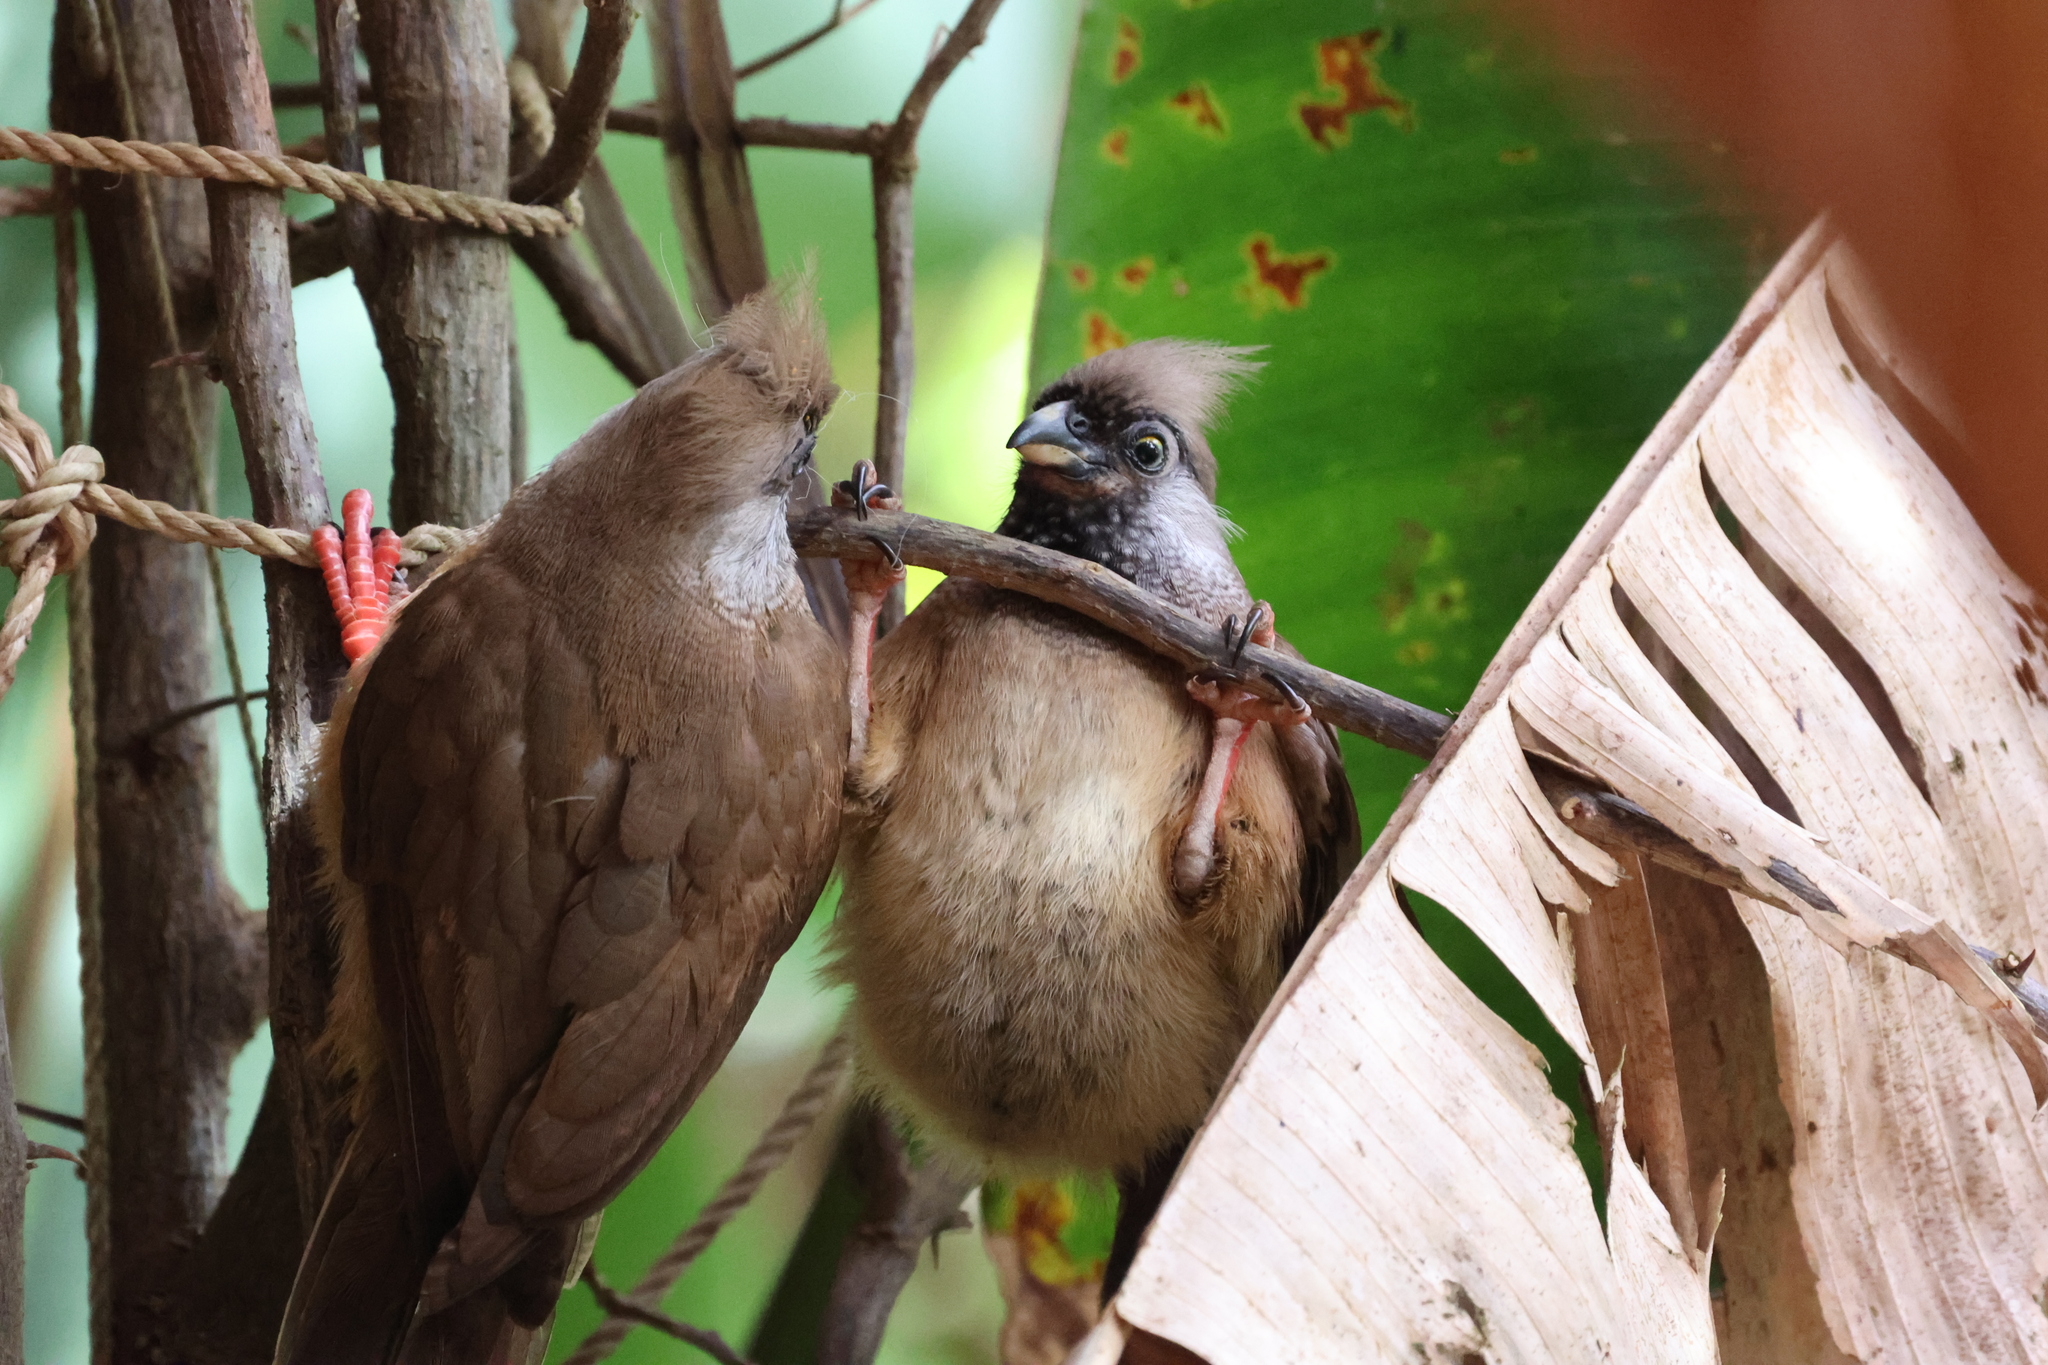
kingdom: Animalia
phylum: Chordata
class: Aves
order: Coliiformes
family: Coliidae
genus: Colius
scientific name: Colius striatus
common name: Speckled mousebird
